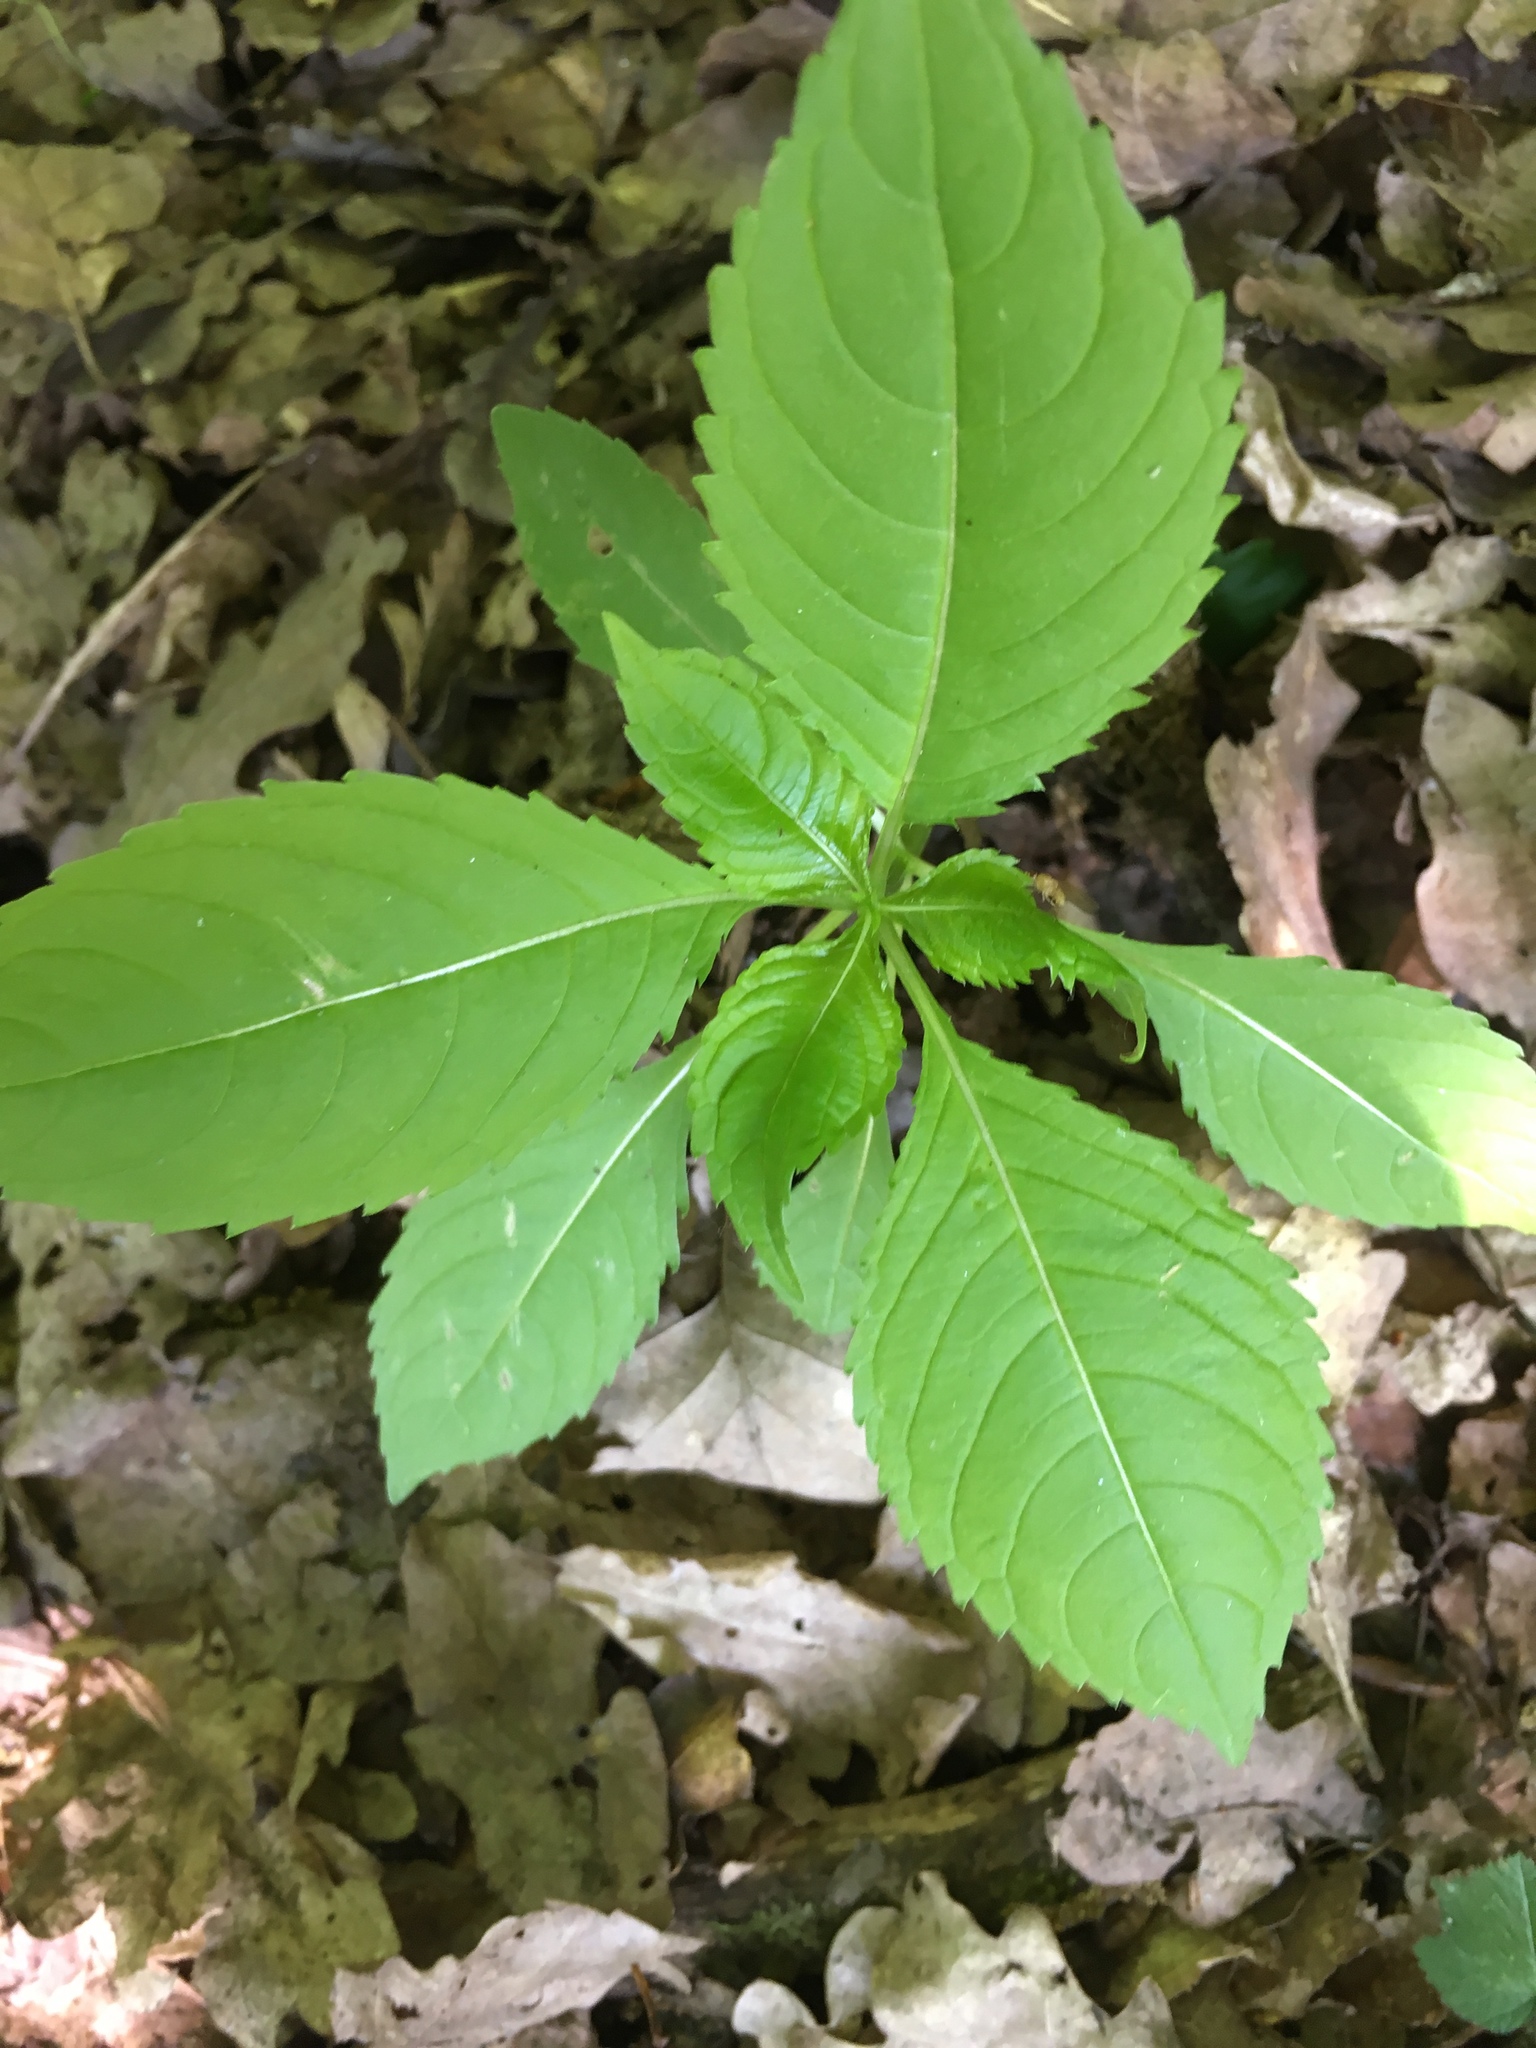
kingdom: Plantae
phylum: Tracheophyta
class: Magnoliopsida
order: Ericales
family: Balsaminaceae
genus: Impatiens
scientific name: Impatiens parviflora
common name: Small balsam
